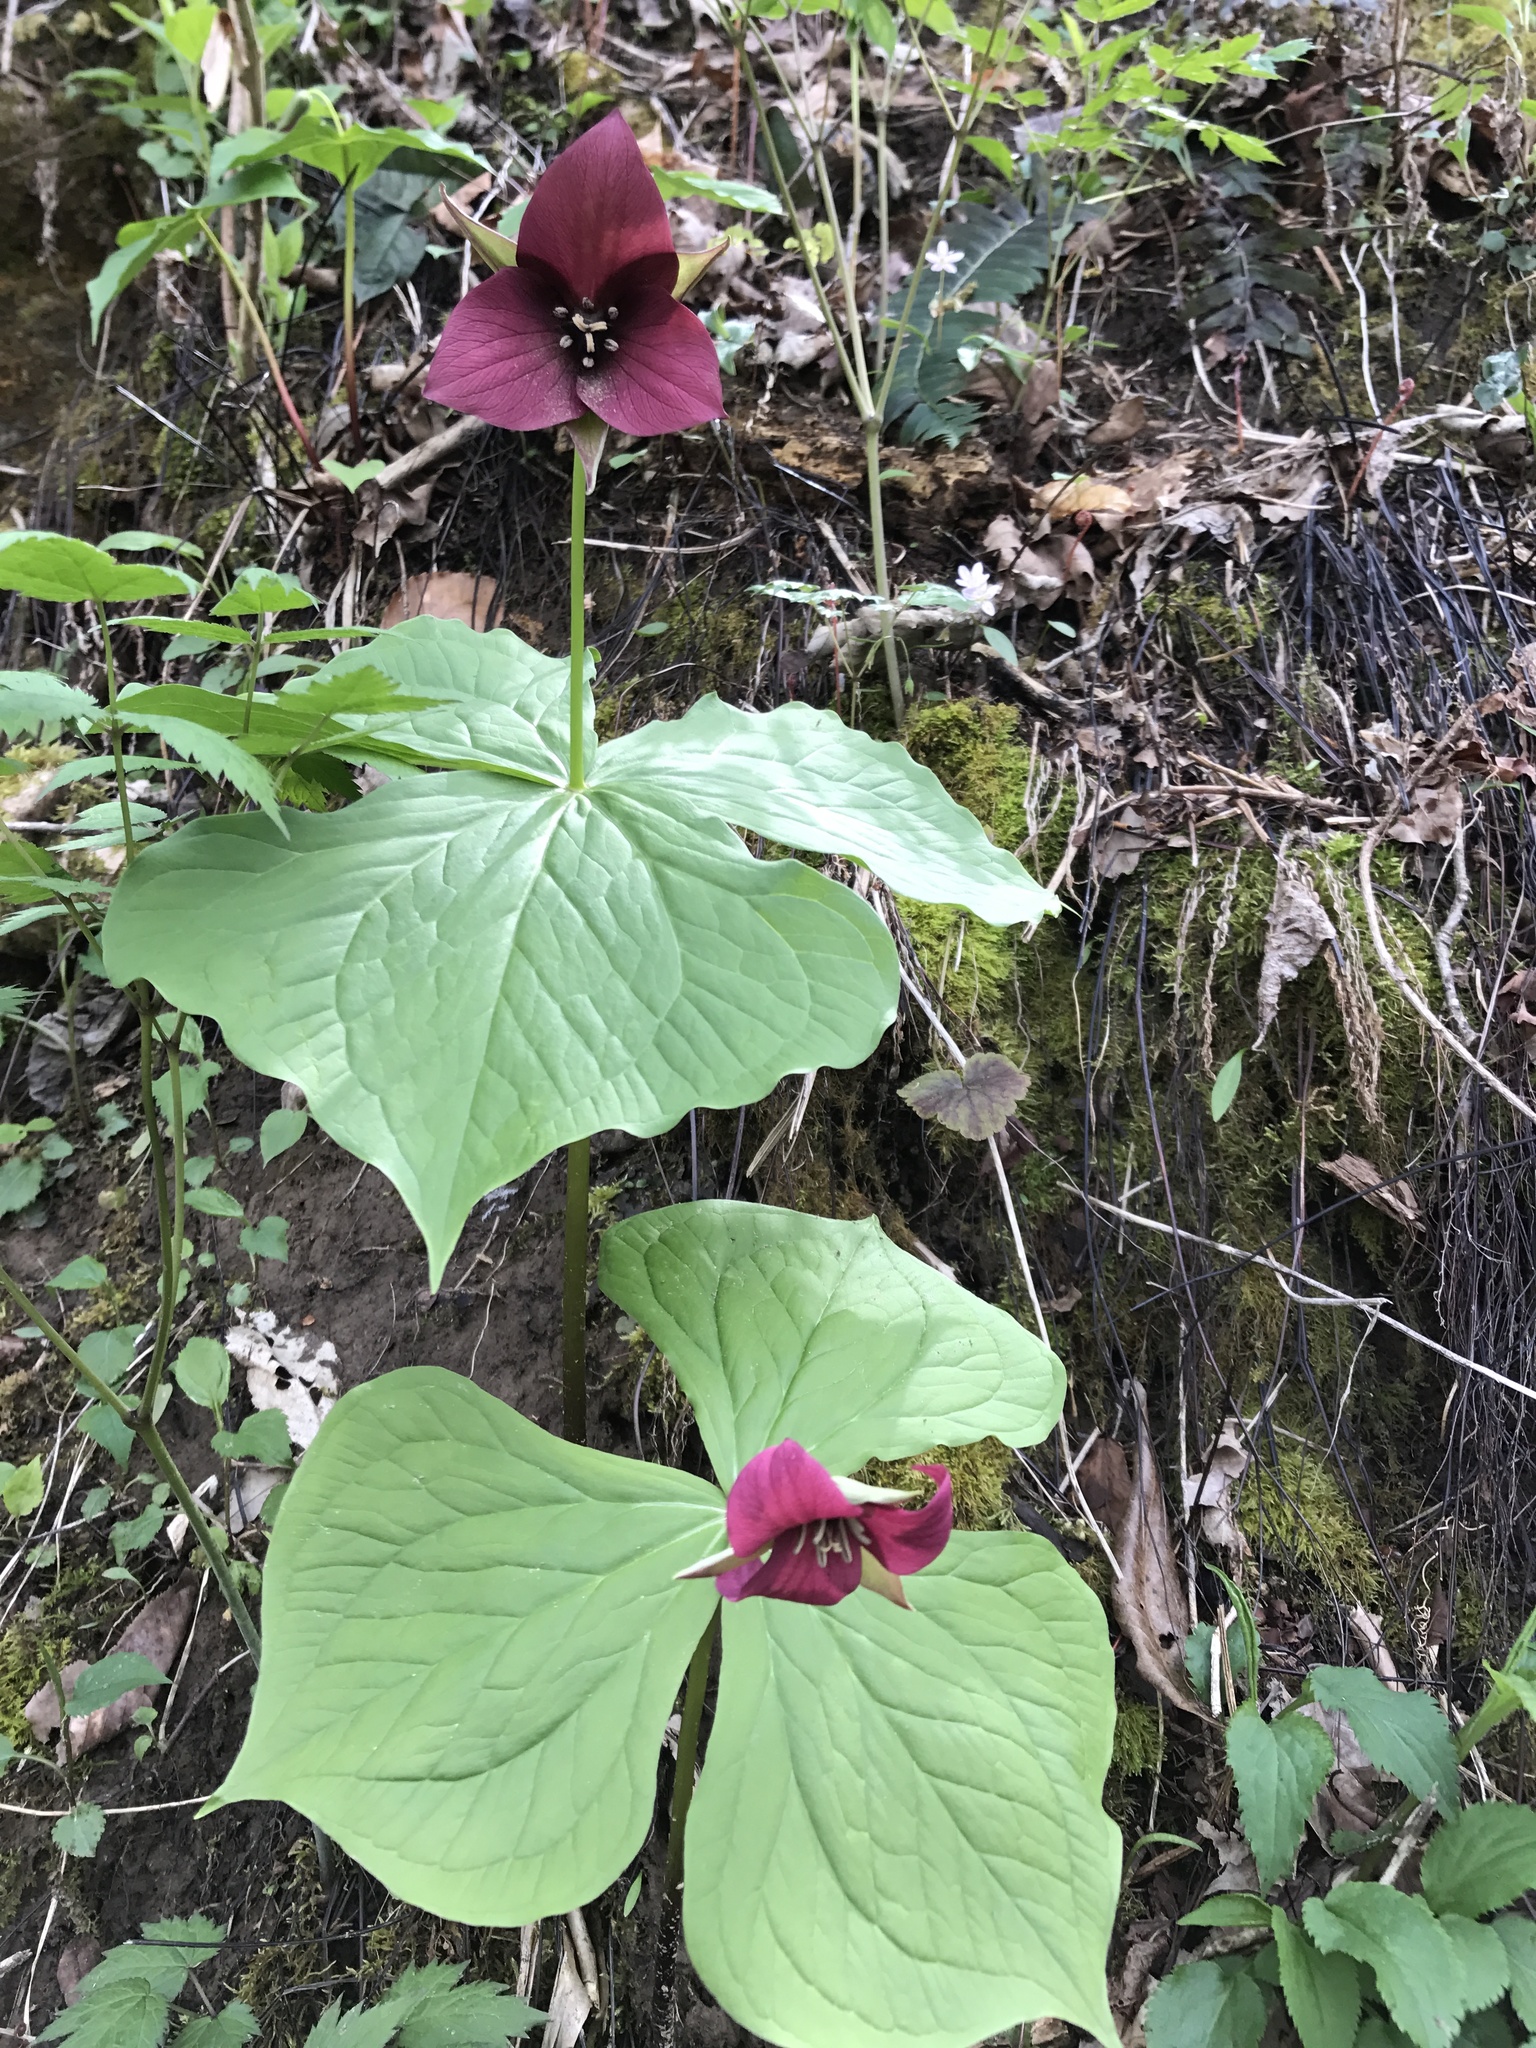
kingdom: Plantae
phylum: Tracheophyta
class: Liliopsida
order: Liliales
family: Melanthiaceae
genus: Trillium
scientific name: Trillium sulcatum
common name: Barksdale trillium
